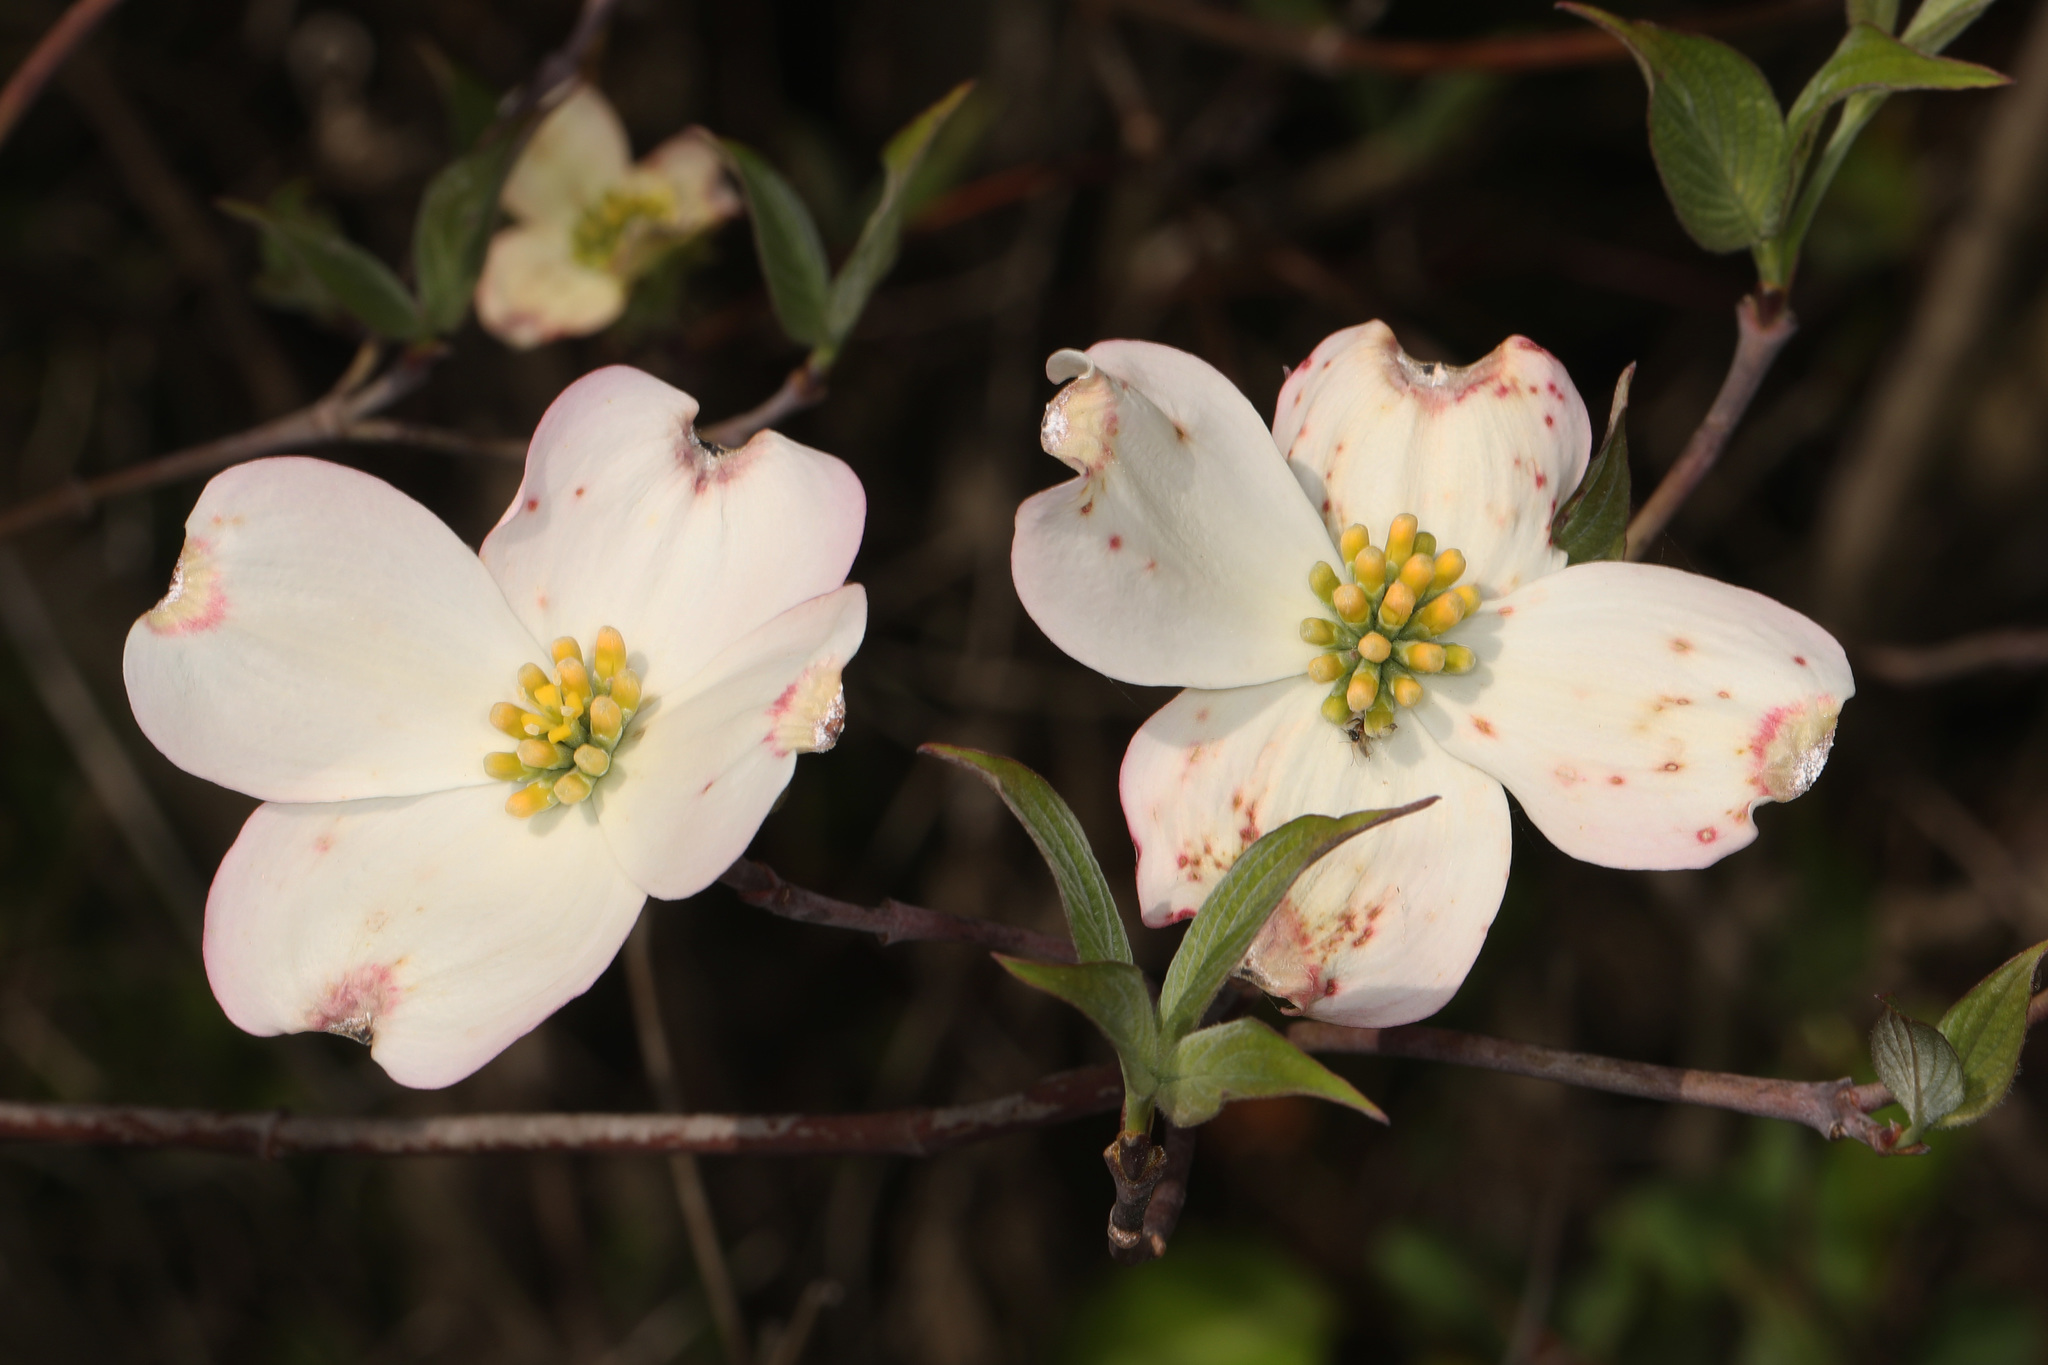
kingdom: Plantae
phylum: Tracheophyta
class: Magnoliopsida
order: Cornales
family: Cornaceae
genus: Cornus
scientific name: Cornus florida
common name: Flowering dogwood
